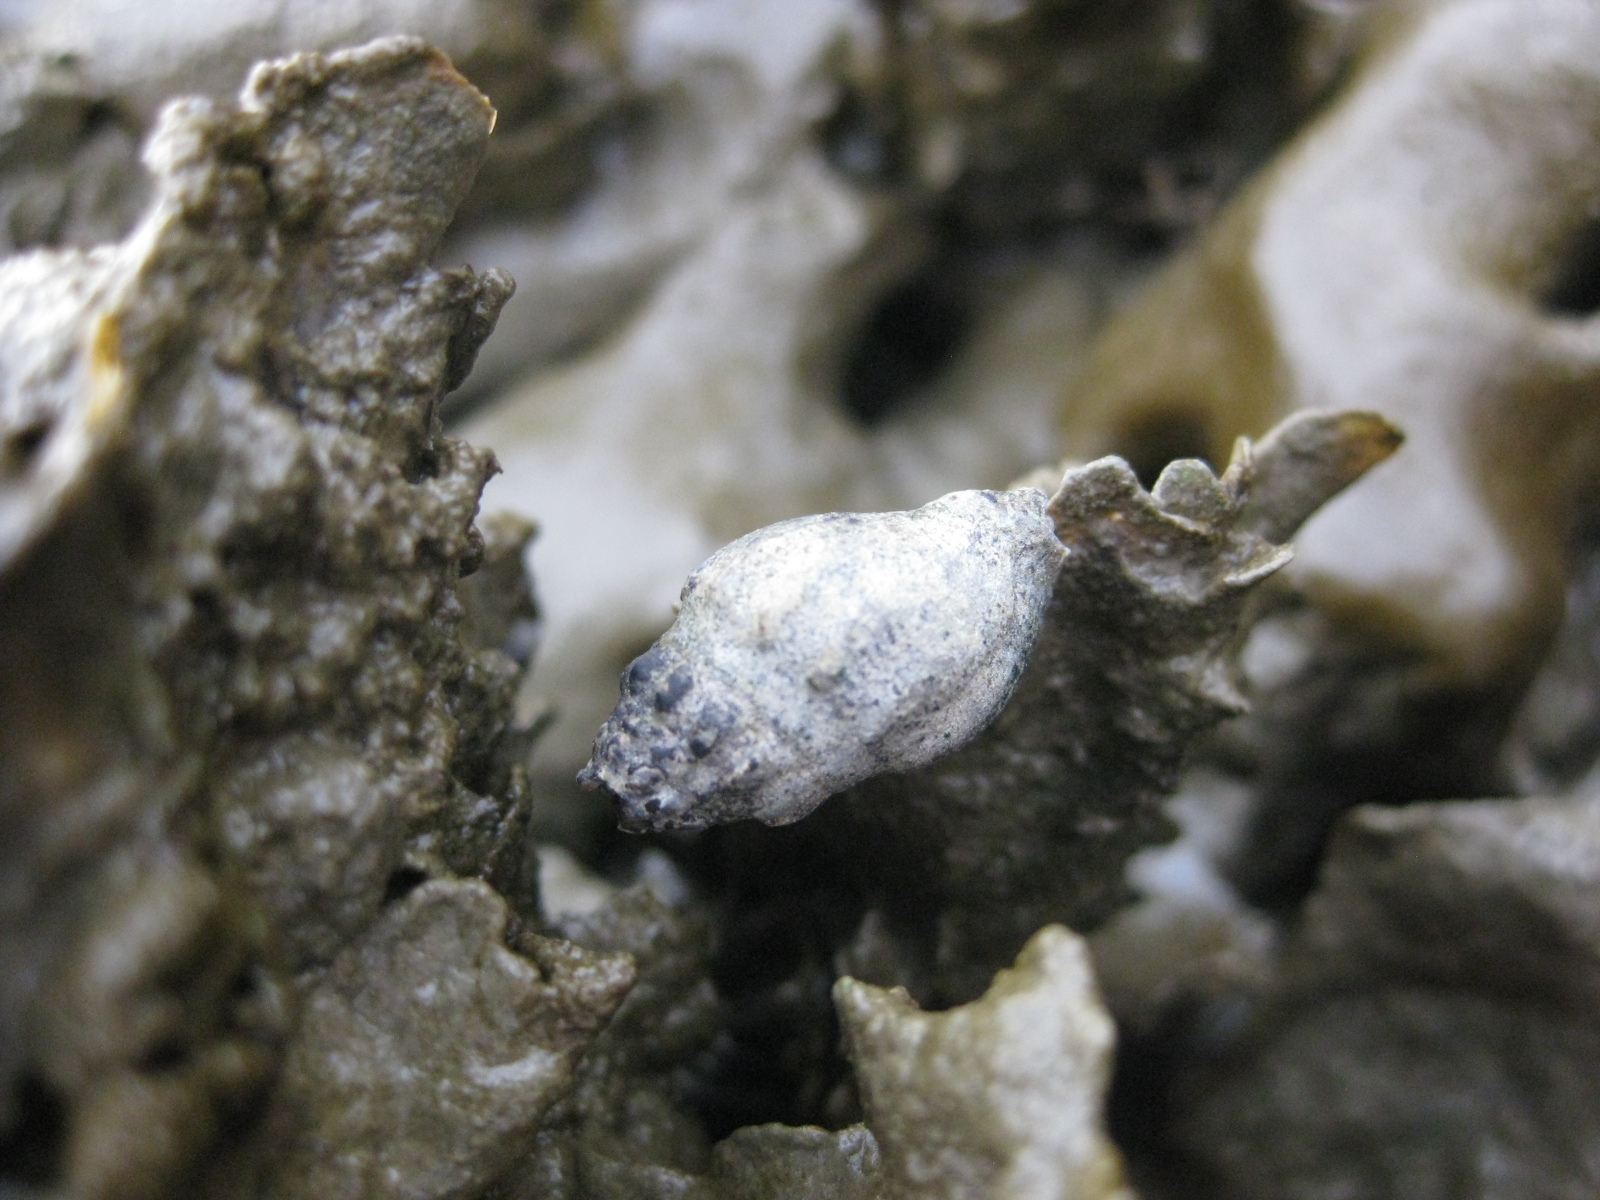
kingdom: Animalia
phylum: Mollusca
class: Gastropoda
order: Neogastropoda
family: Cominellidae
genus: Cominella
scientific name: Cominella glandiformis
